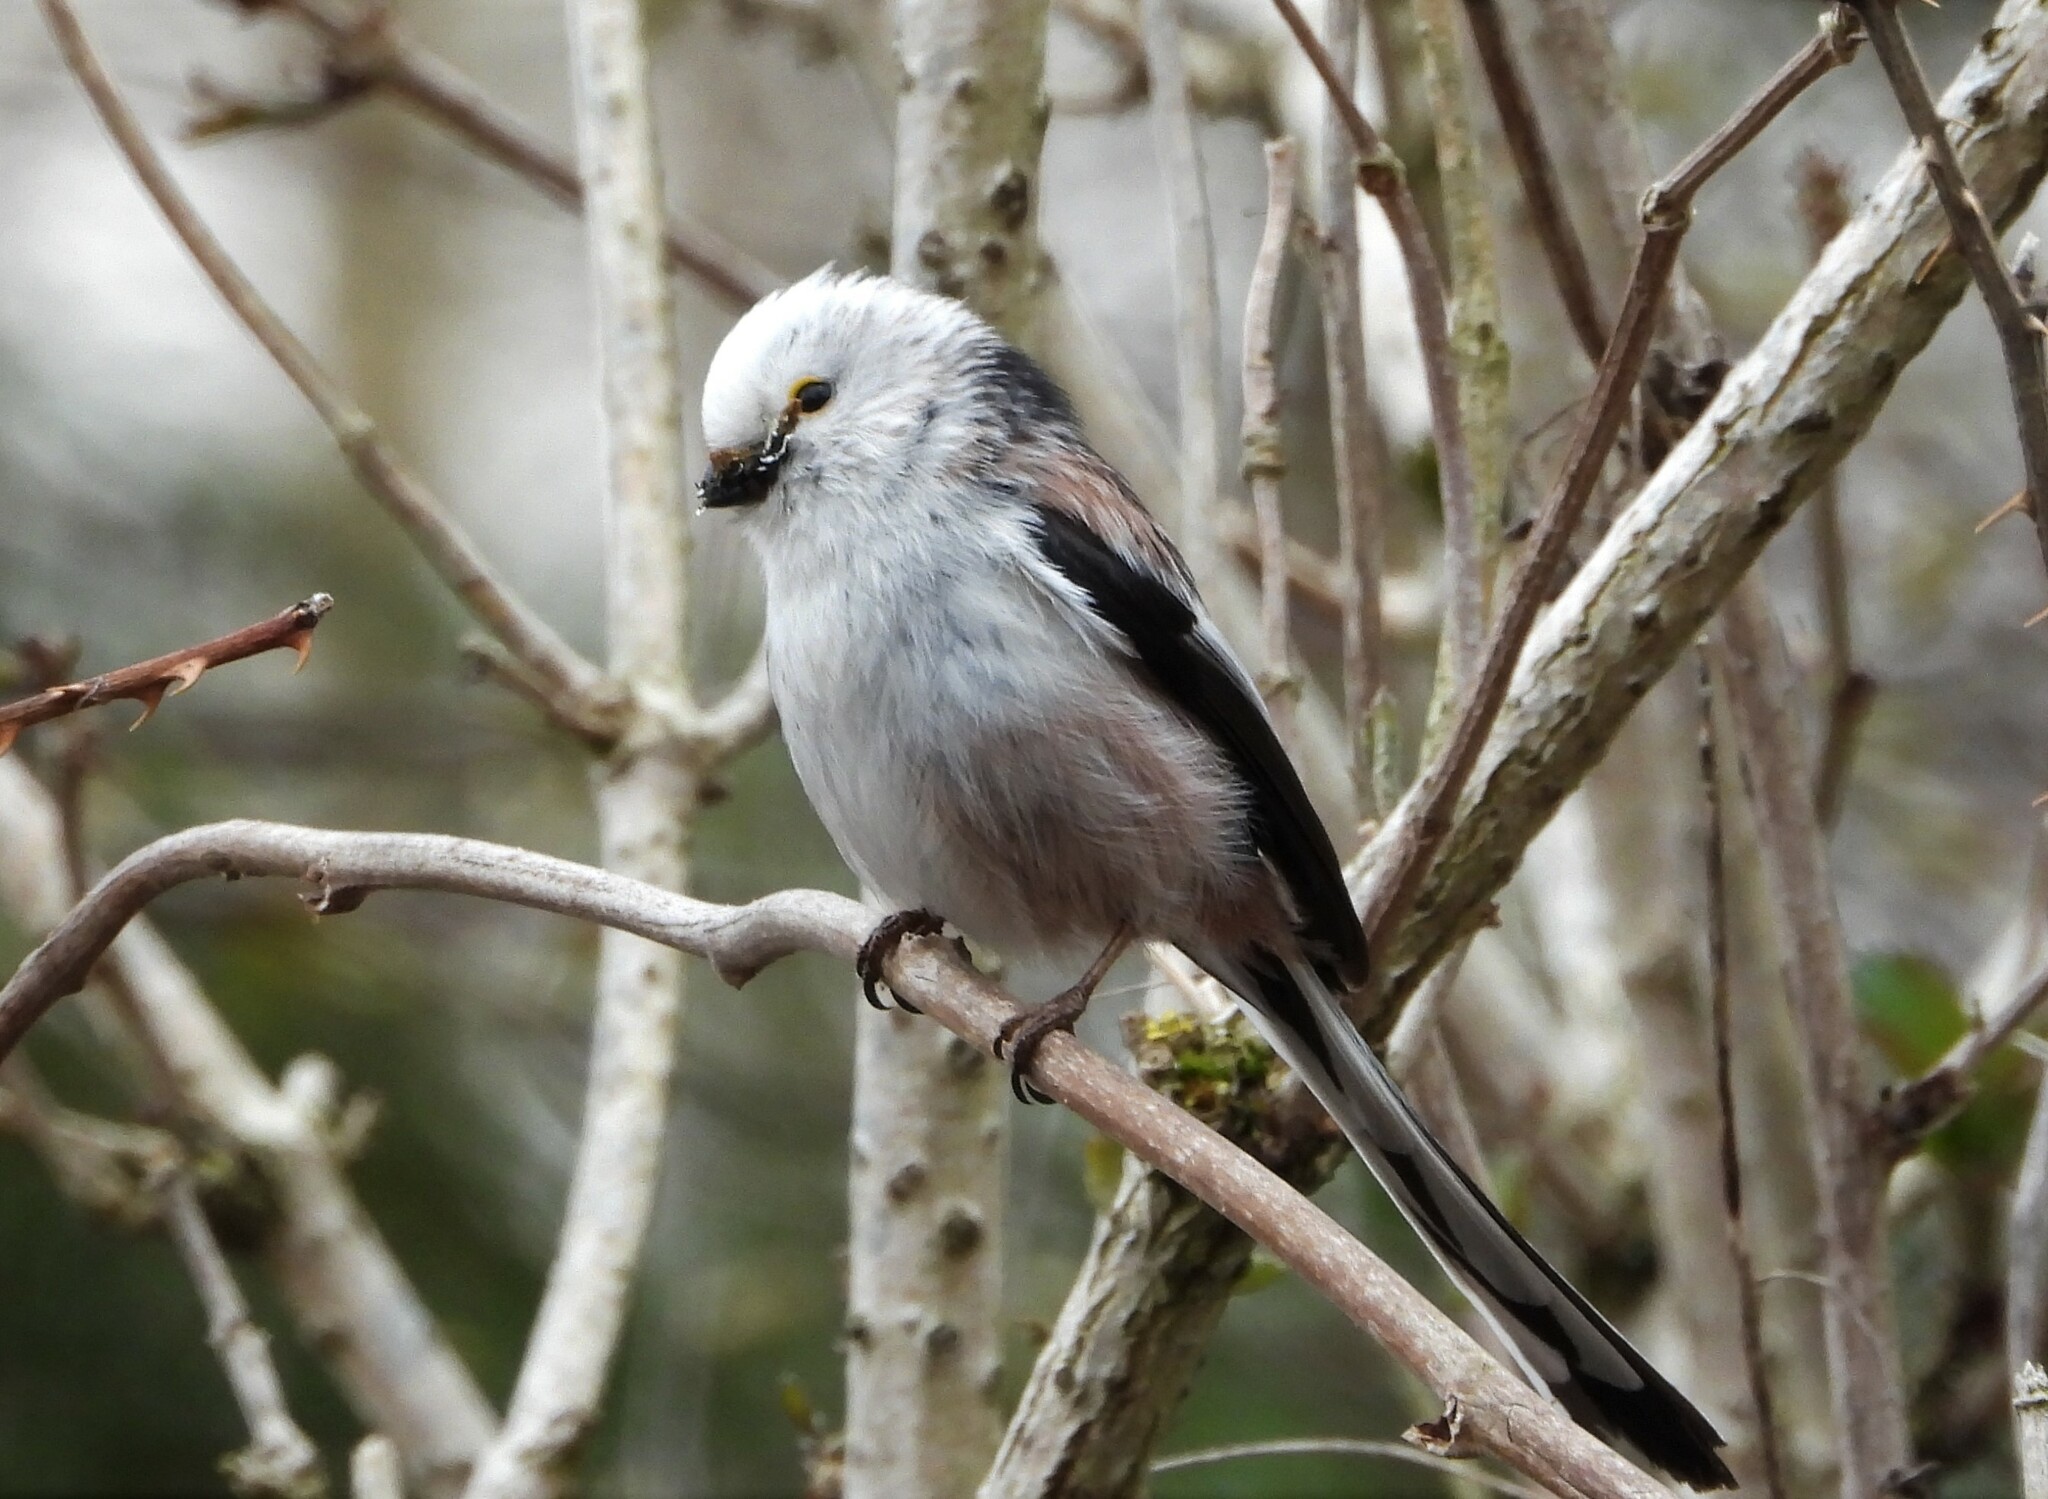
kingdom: Animalia
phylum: Chordata
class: Aves
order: Passeriformes
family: Aegithalidae
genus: Aegithalos
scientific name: Aegithalos caudatus
